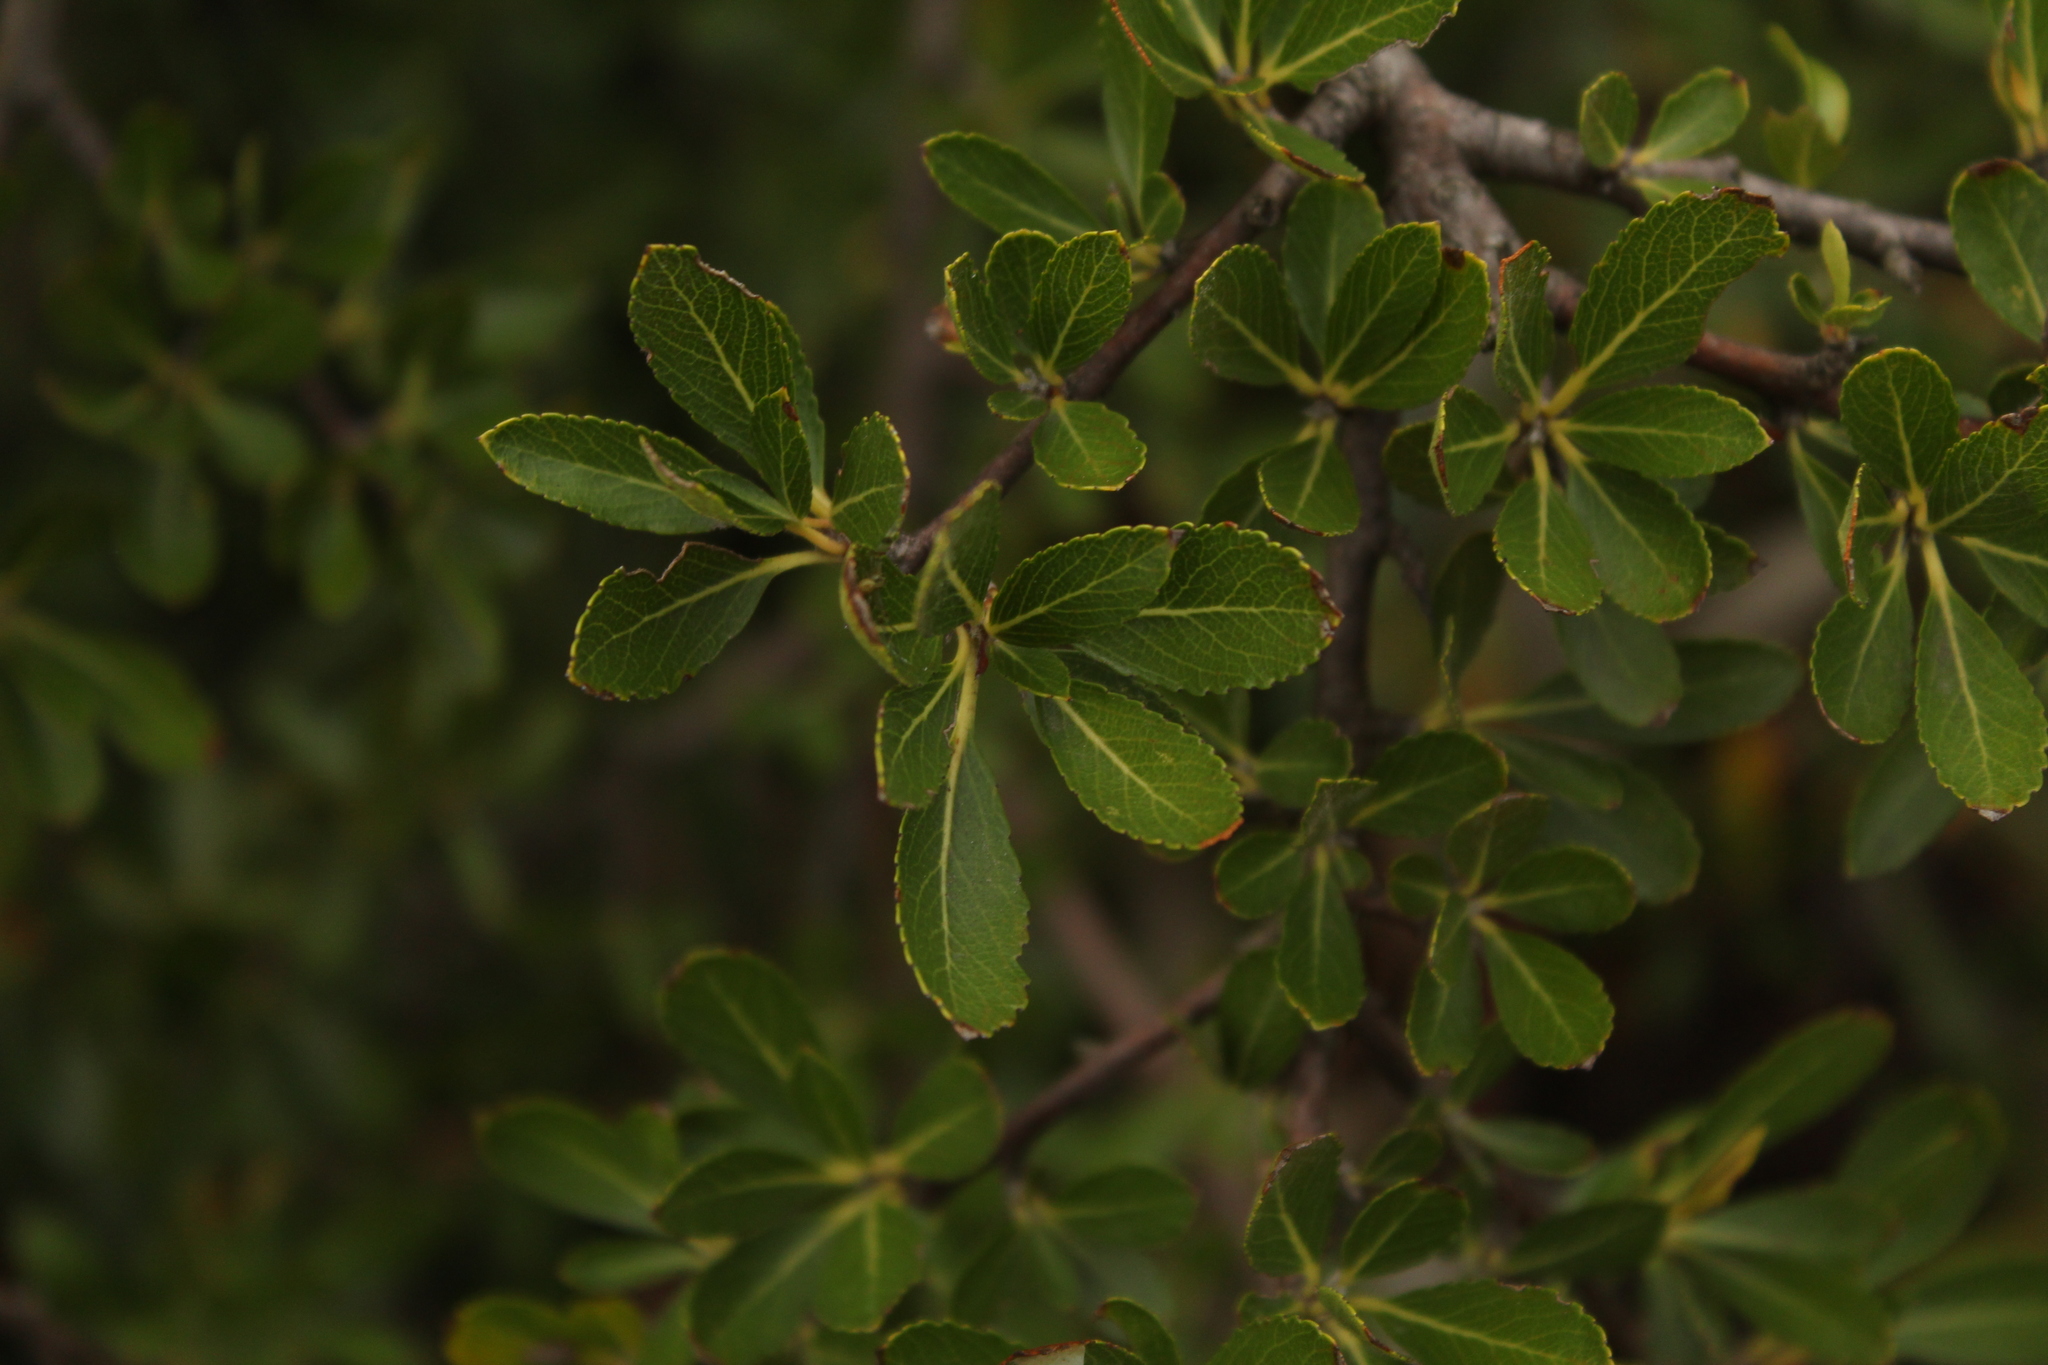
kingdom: Plantae
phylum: Tracheophyta
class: Magnoliopsida
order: Rosales
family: Rosaceae
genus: Hesperomeles
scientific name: Hesperomeles obtusifolia
